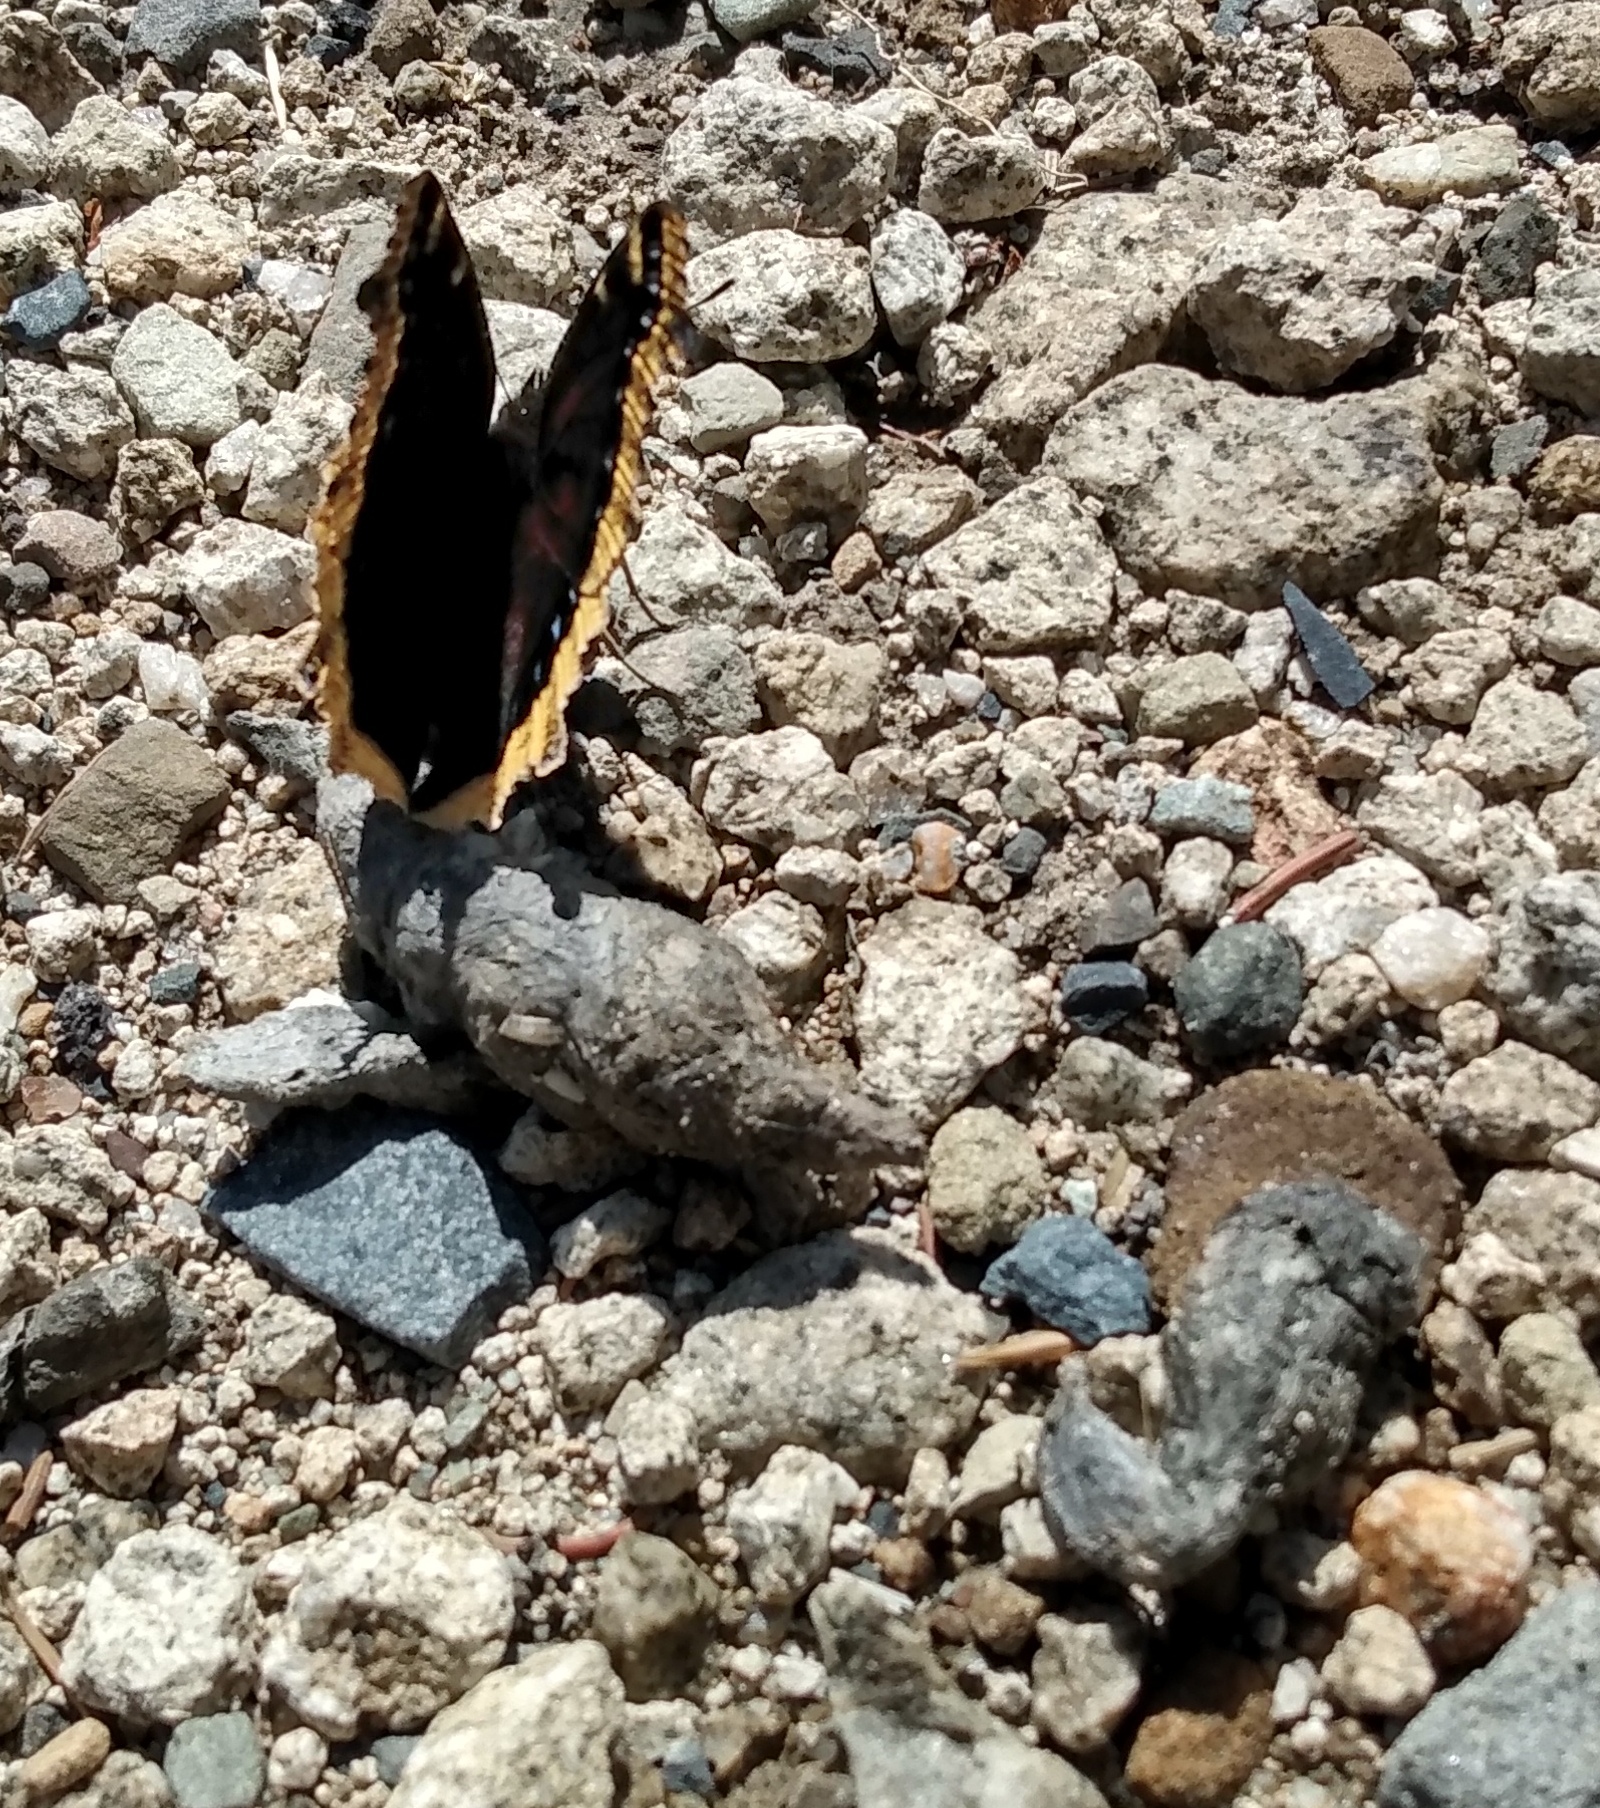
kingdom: Animalia
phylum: Arthropoda
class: Insecta
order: Lepidoptera
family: Nymphalidae
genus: Nymphalis
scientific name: Nymphalis antiopa
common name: Camberwell beauty
